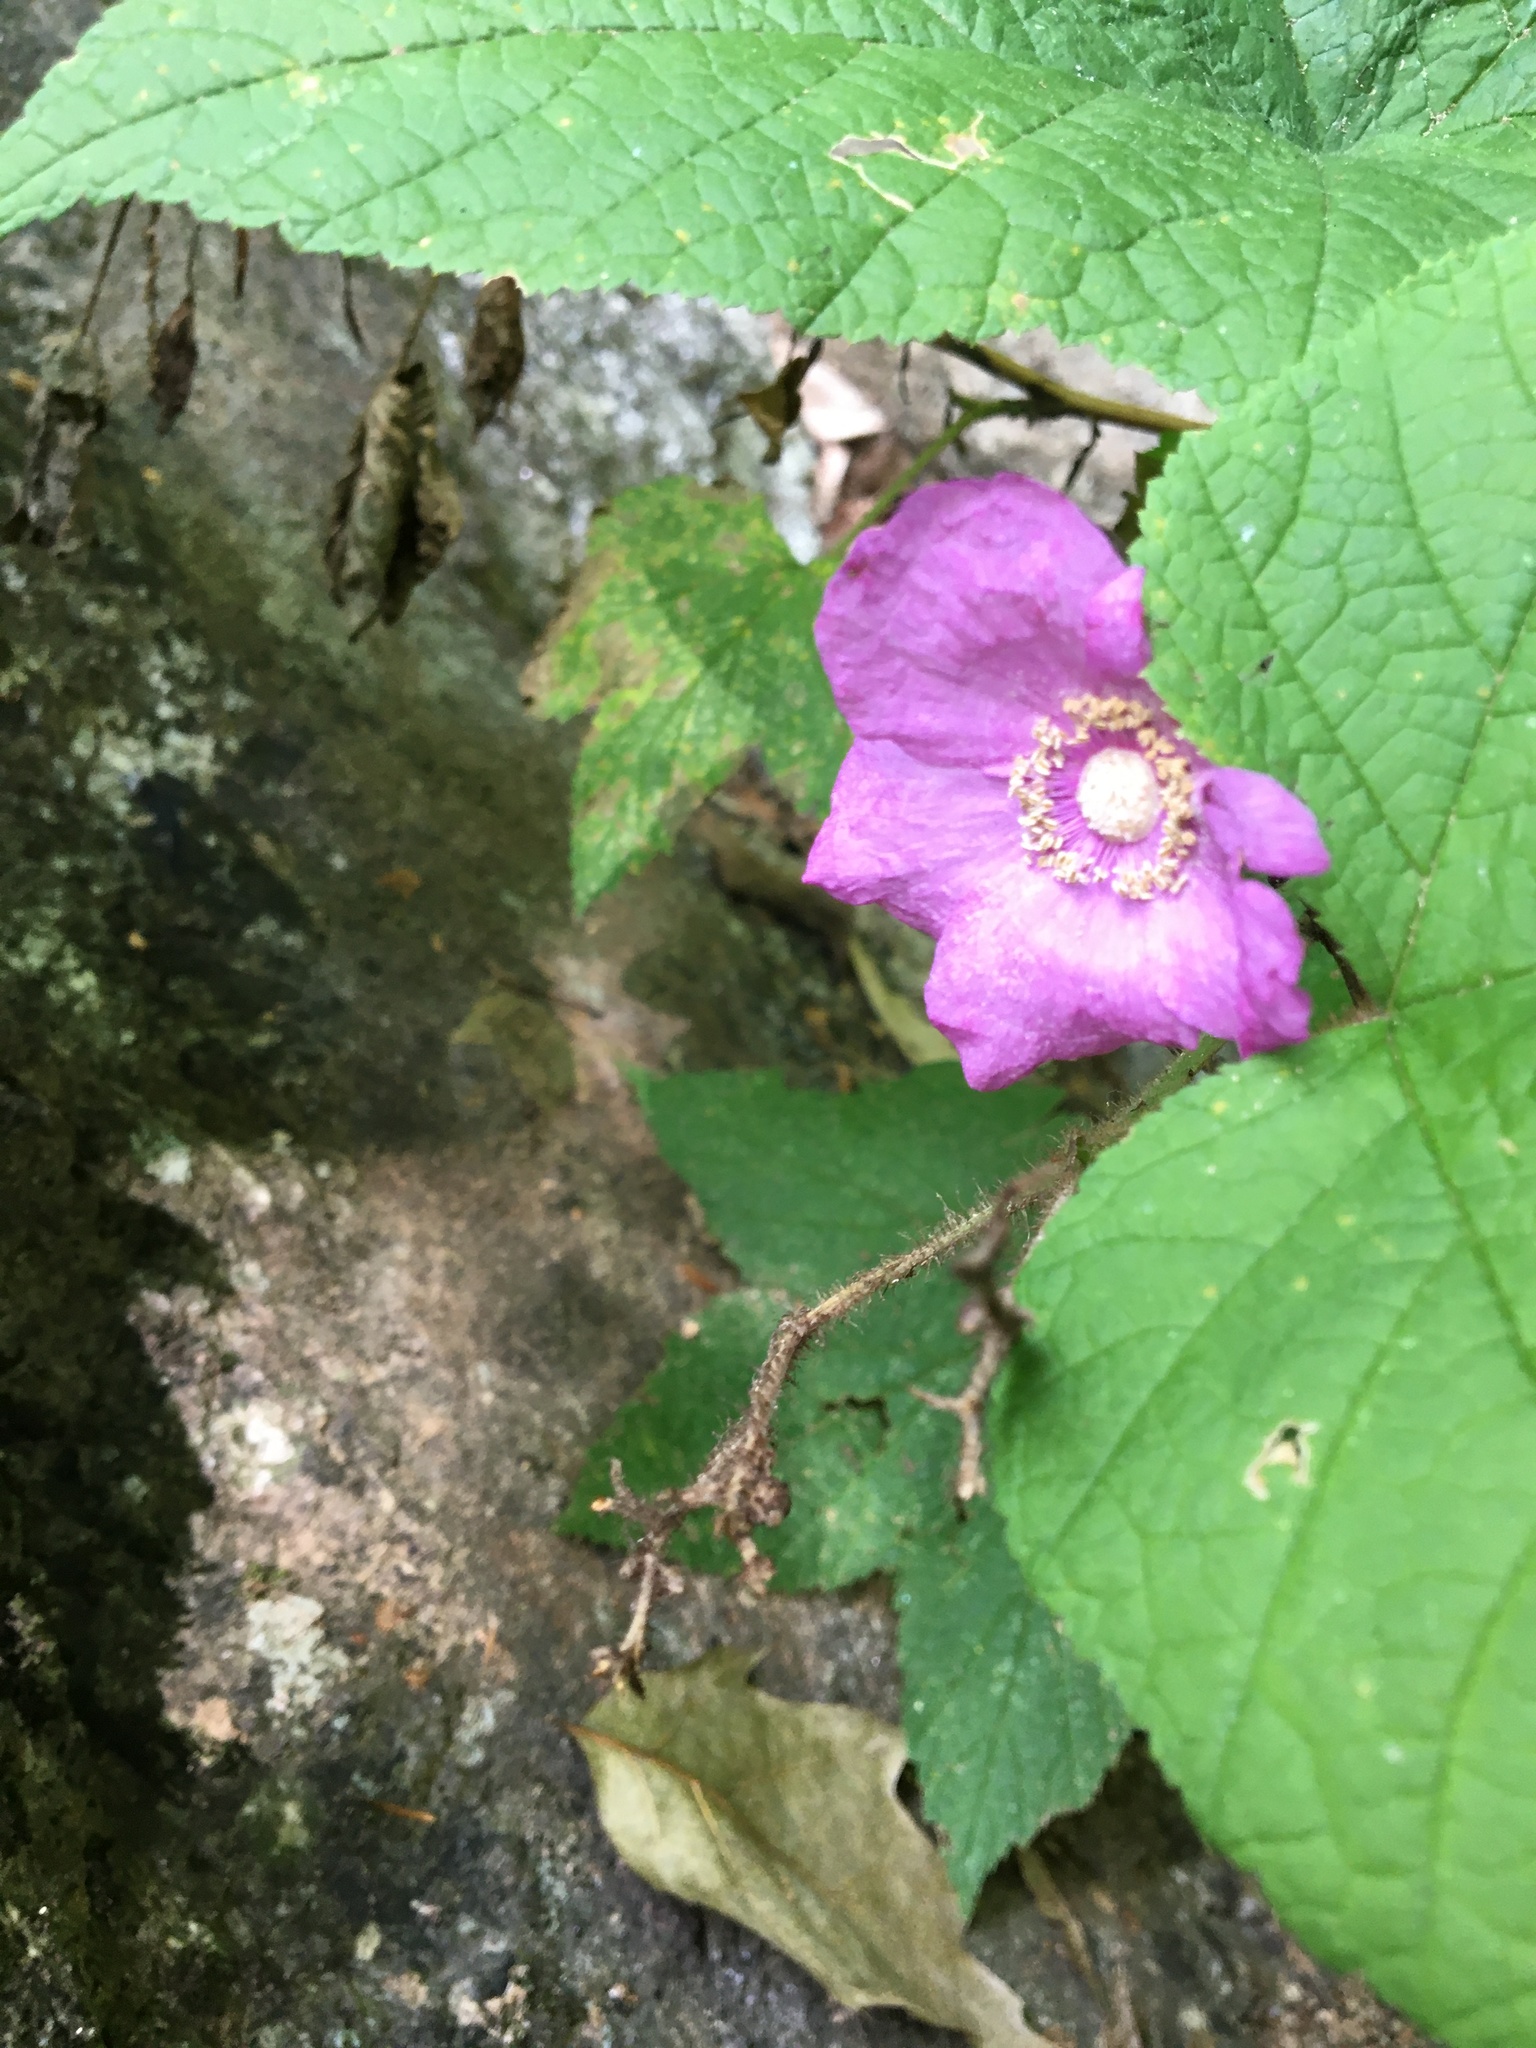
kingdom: Plantae
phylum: Tracheophyta
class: Magnoliopsida
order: Rosales
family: Rosaceae
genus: Rubus
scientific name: Rubus odoratus
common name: Purple-flowered raspberry
